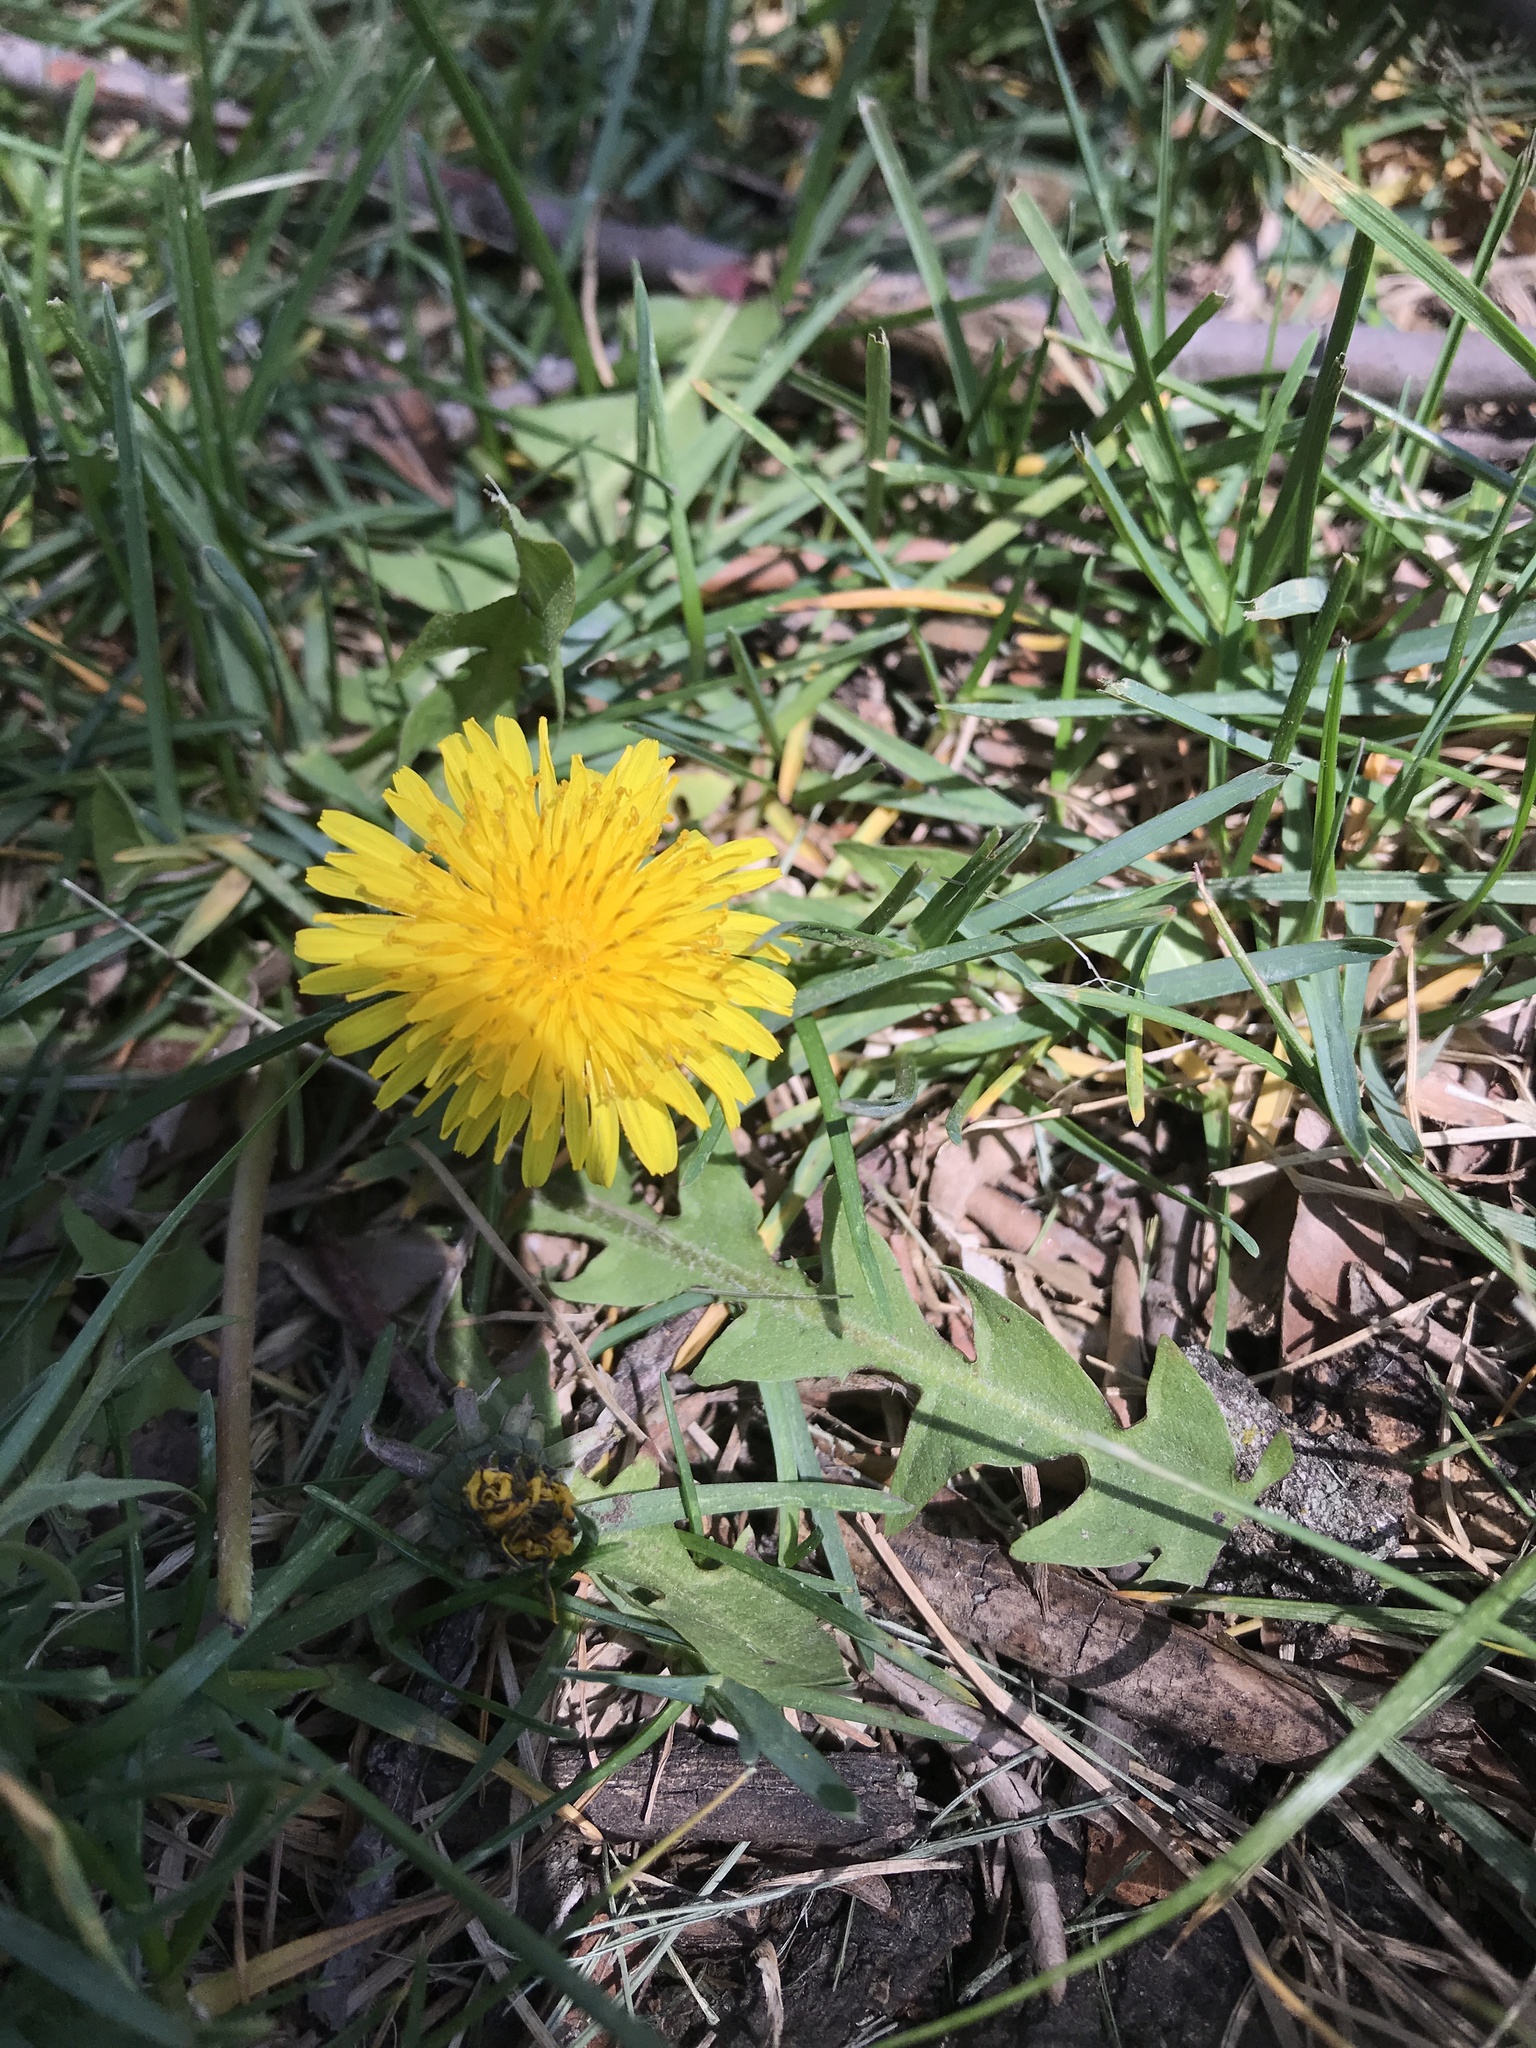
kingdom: Plantae
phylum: Tracheophyta
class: Magnoliopsida
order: Asterales
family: Asteraceae
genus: Taraxacum
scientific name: Taraxacum officinale
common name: Common dandelion
